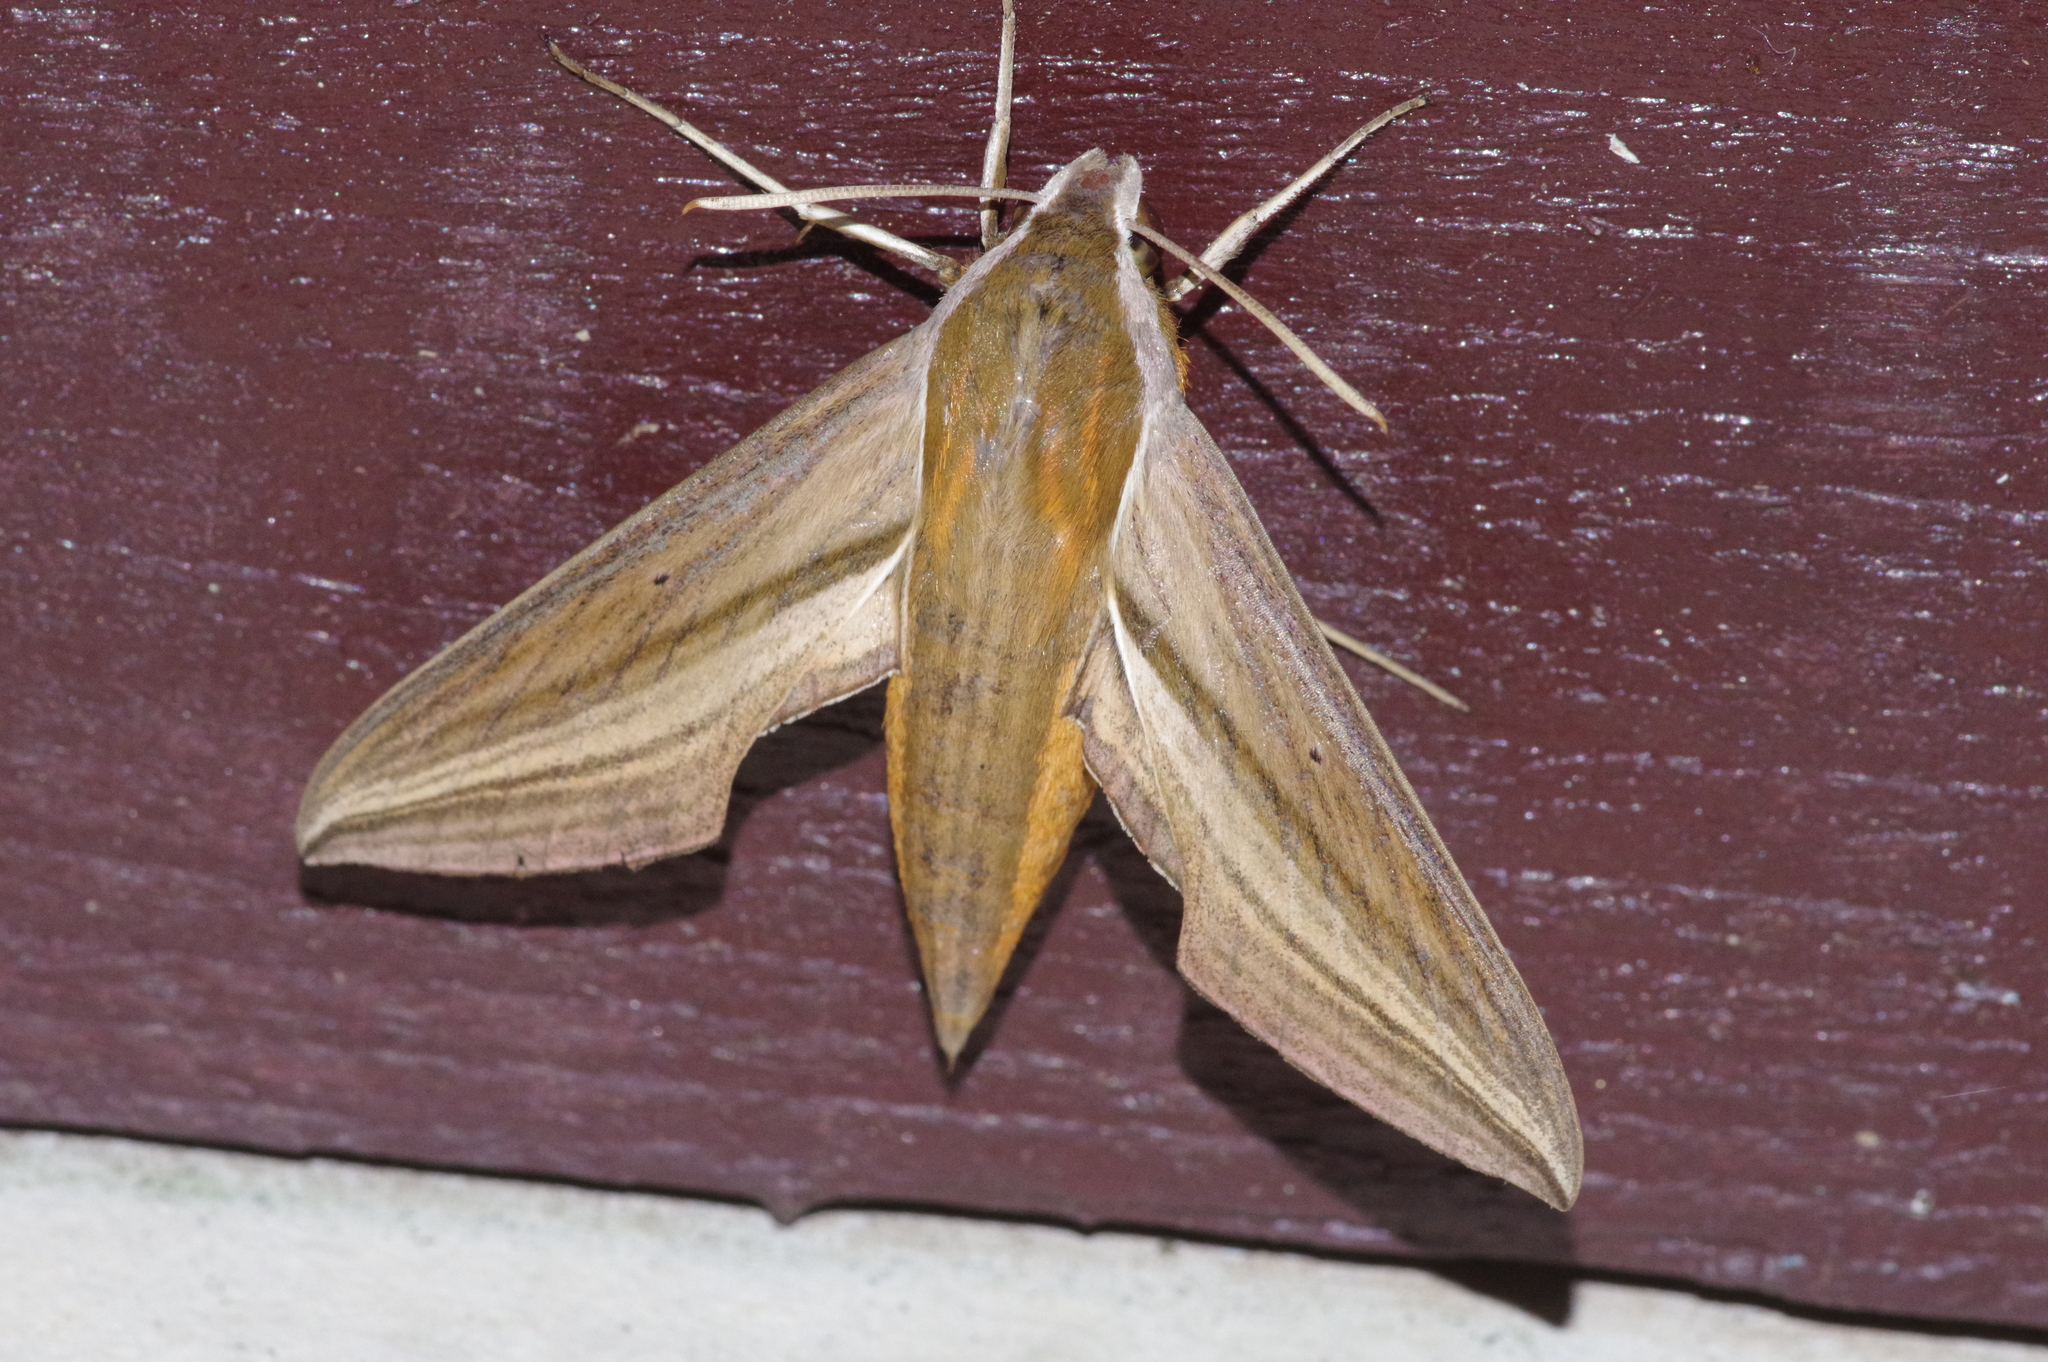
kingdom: Animalia
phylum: Arthropoda
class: Insecta
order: Lepidoptera
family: Sphingidae
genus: Theretra
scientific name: Theretra japonica
